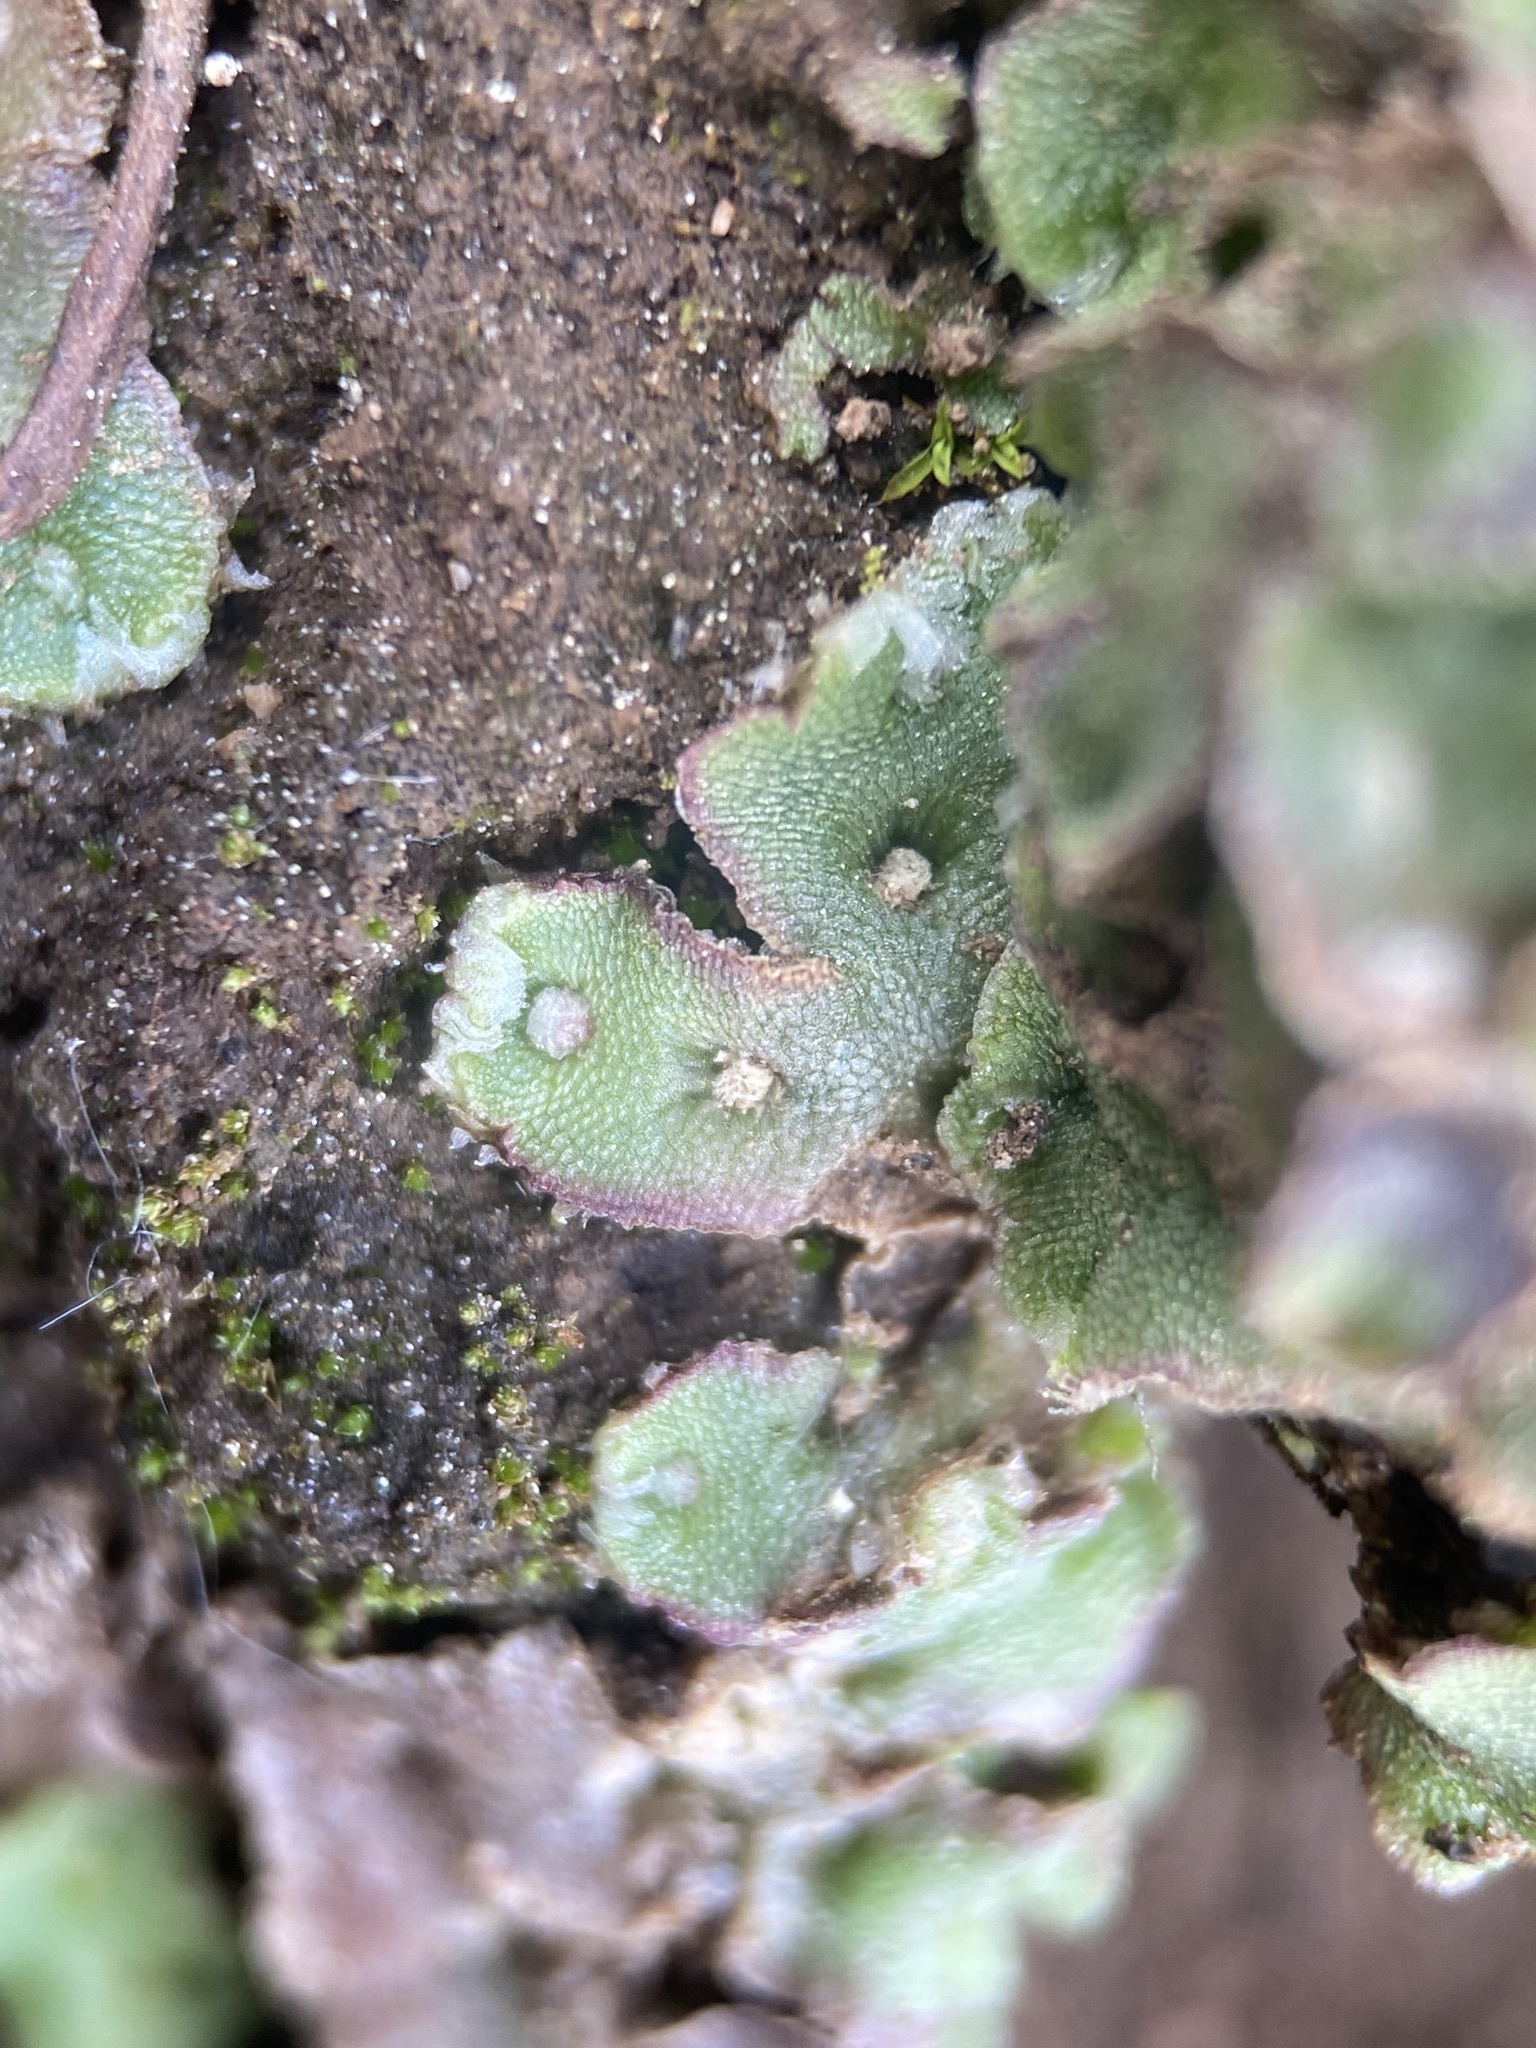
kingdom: Plantae
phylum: Marchantiophyta
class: Marchantiopsida
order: Marchantiales
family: Cleveaceae
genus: Clevea
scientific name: Clevea hyalina
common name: Hyaline liverwort
